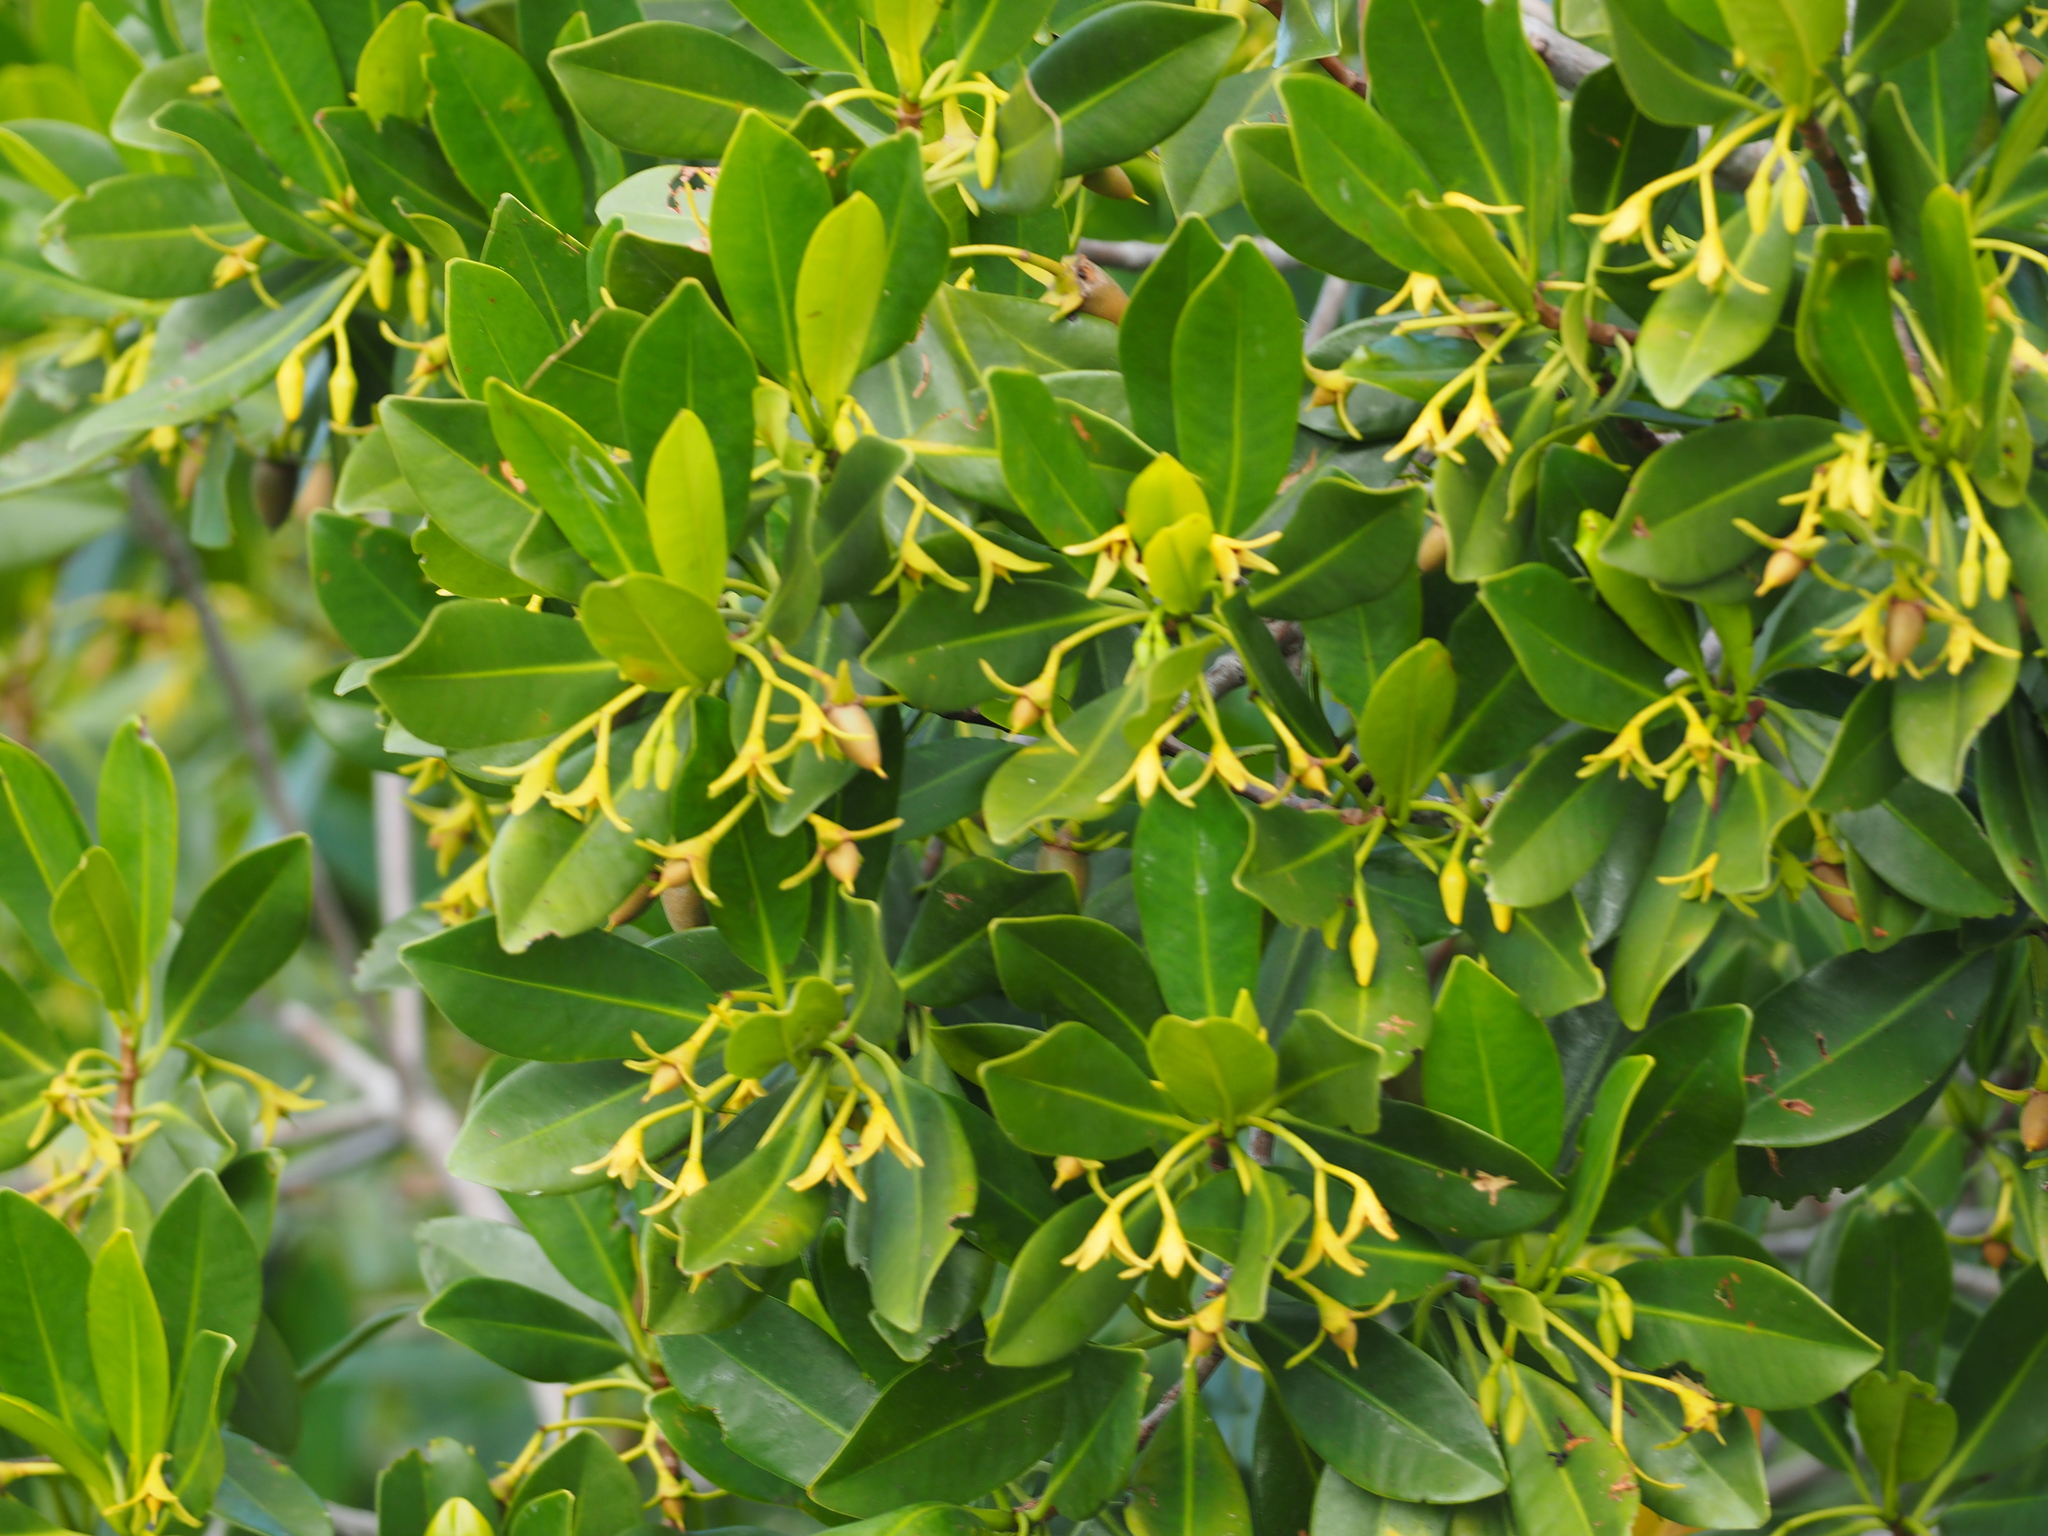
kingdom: Plantae
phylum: Tracheophyta
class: Magnoliopsida
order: Malpighiales
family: Rhizophoraceae
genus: Rhizophora
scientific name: Rhizophora mangle
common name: Red mangrove
